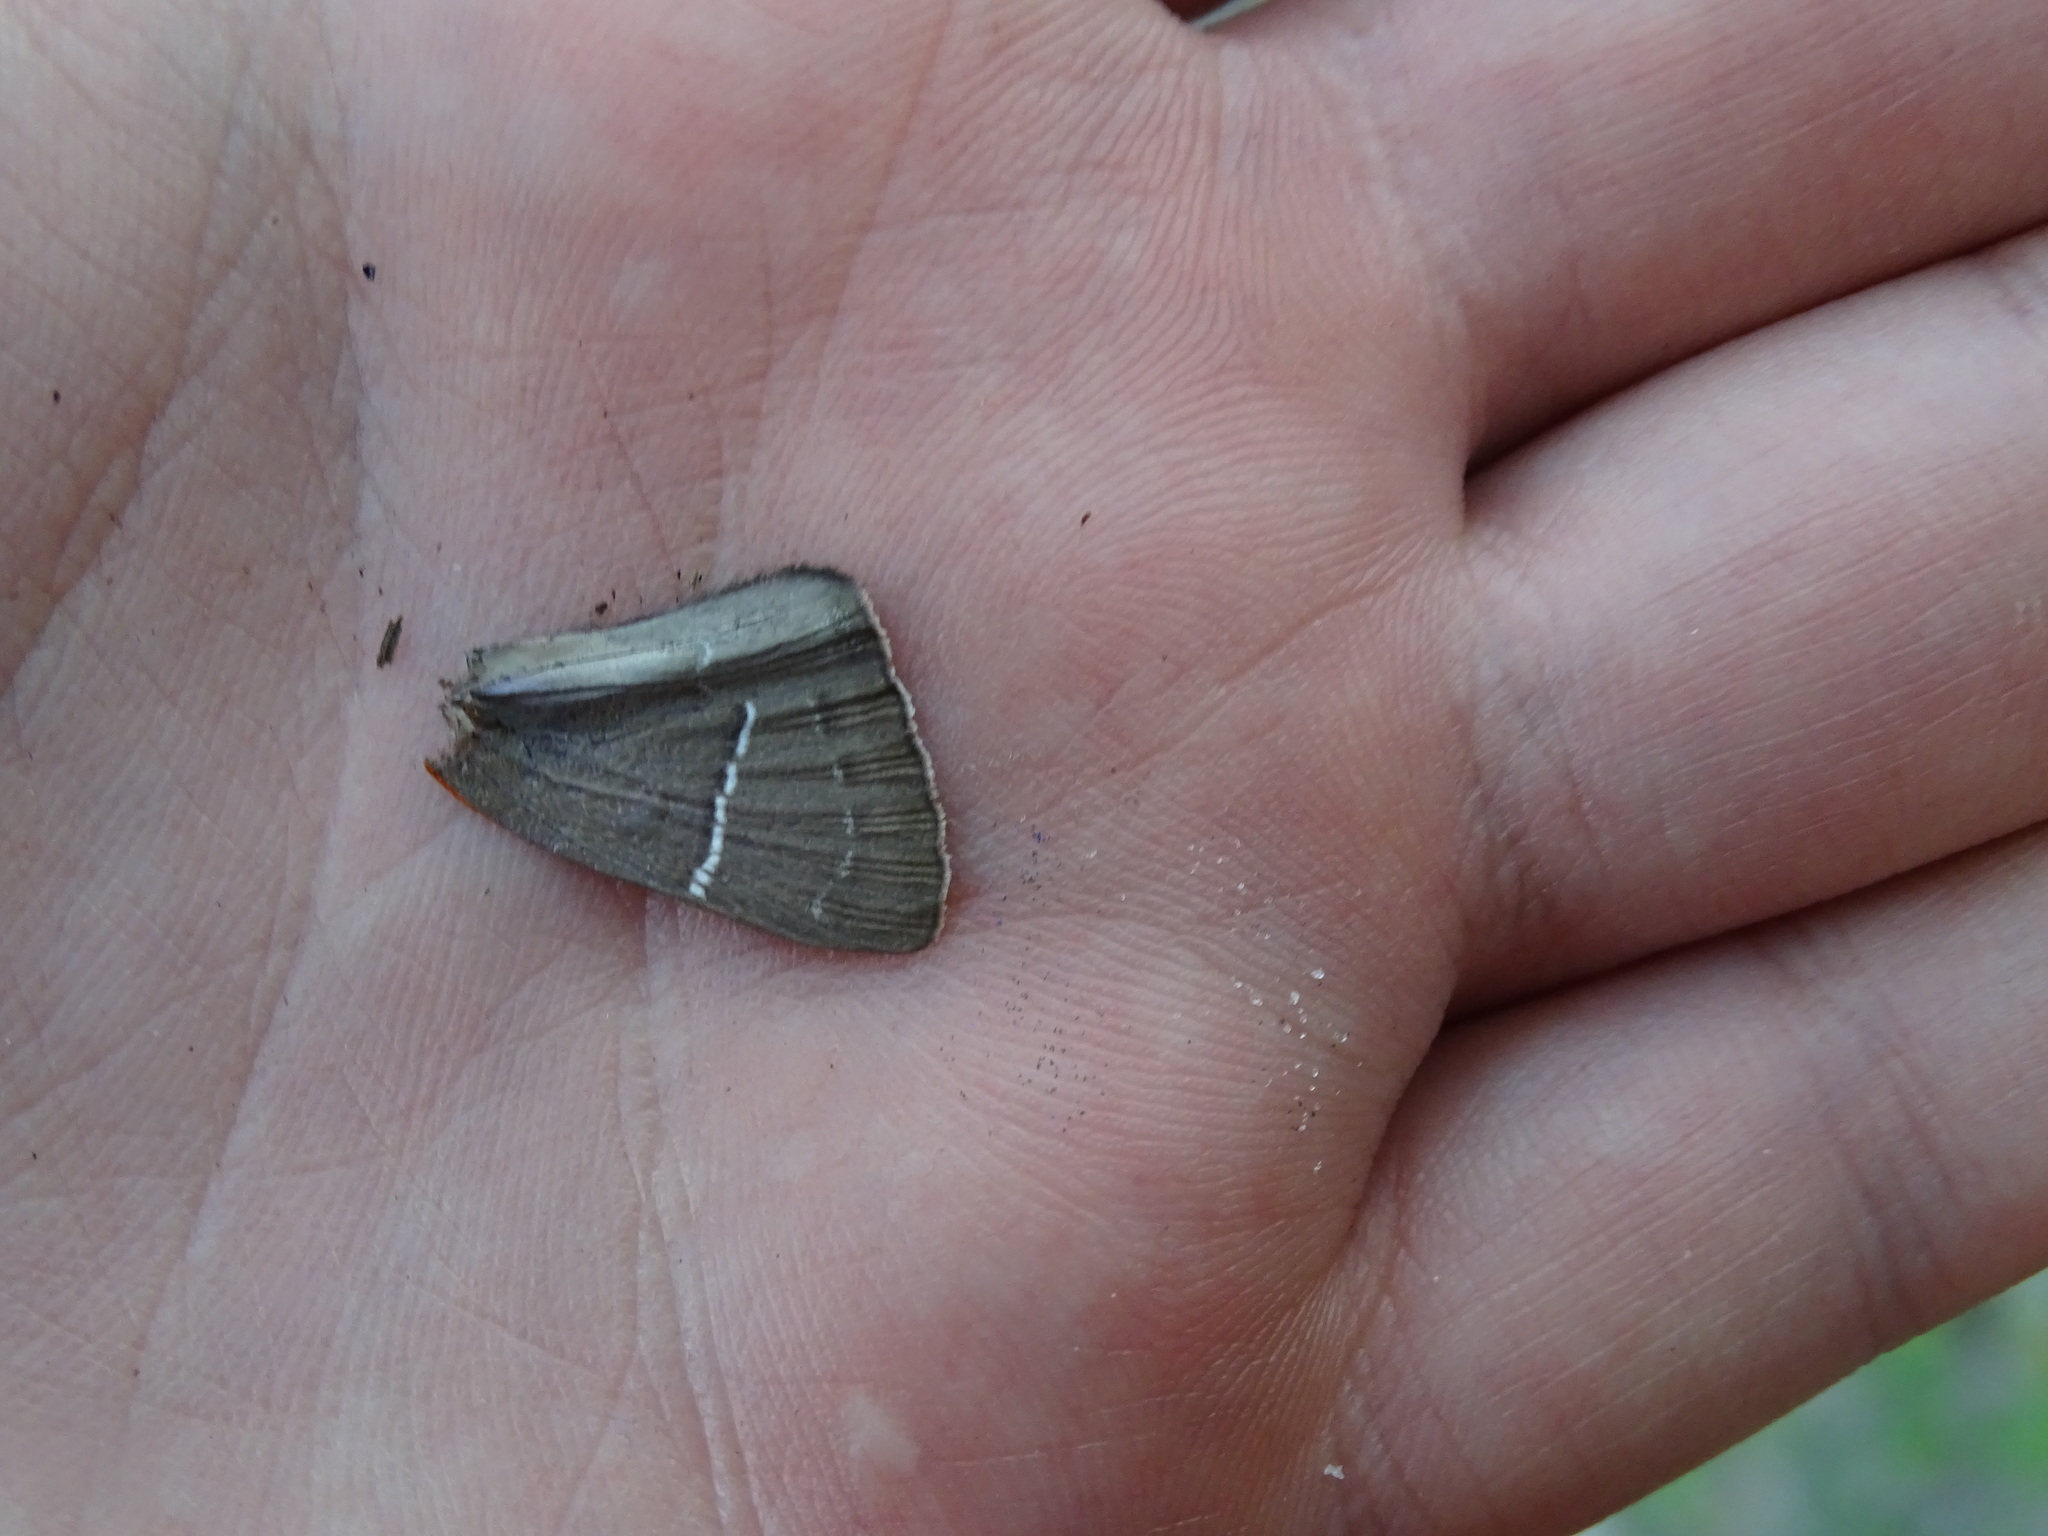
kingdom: Animalia
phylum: Arthropoda
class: Insecta
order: Lepidoptera
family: Lycaenidae
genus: Parrhasius
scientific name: Parrhasius m-album
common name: White m hairstreak
